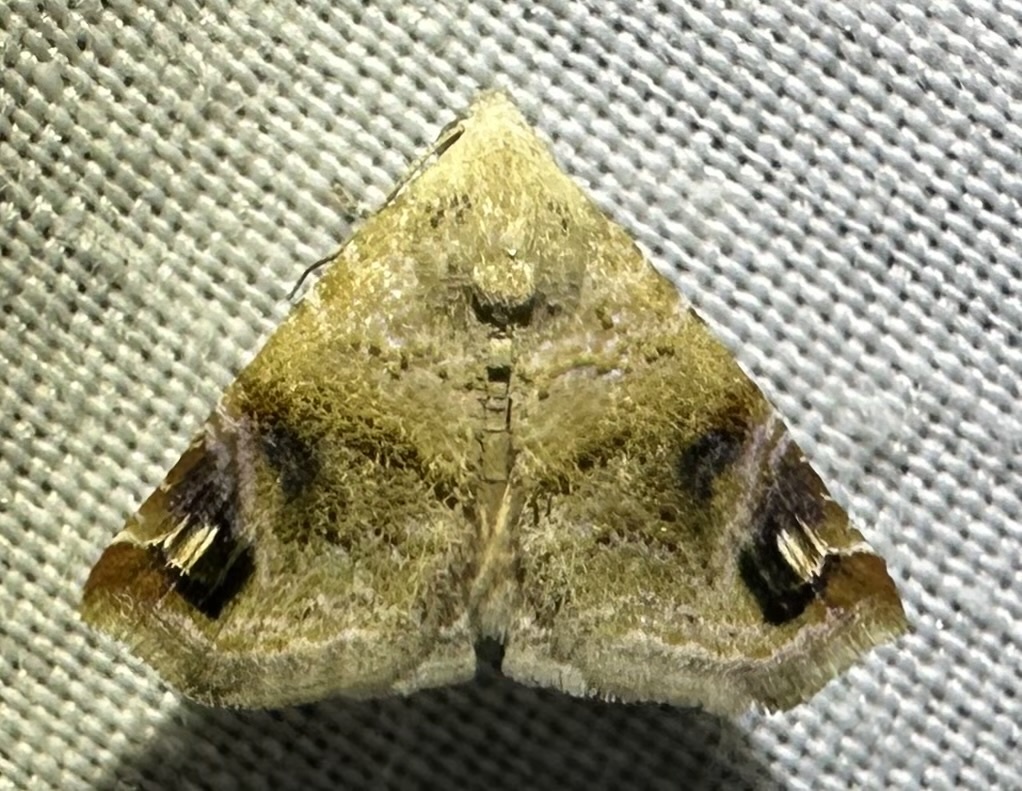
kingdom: Animalia
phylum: Arthropoda
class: Insecta
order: Lepidoptera
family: Noctuidae
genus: Eublemma
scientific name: Eublemma apicimacula
